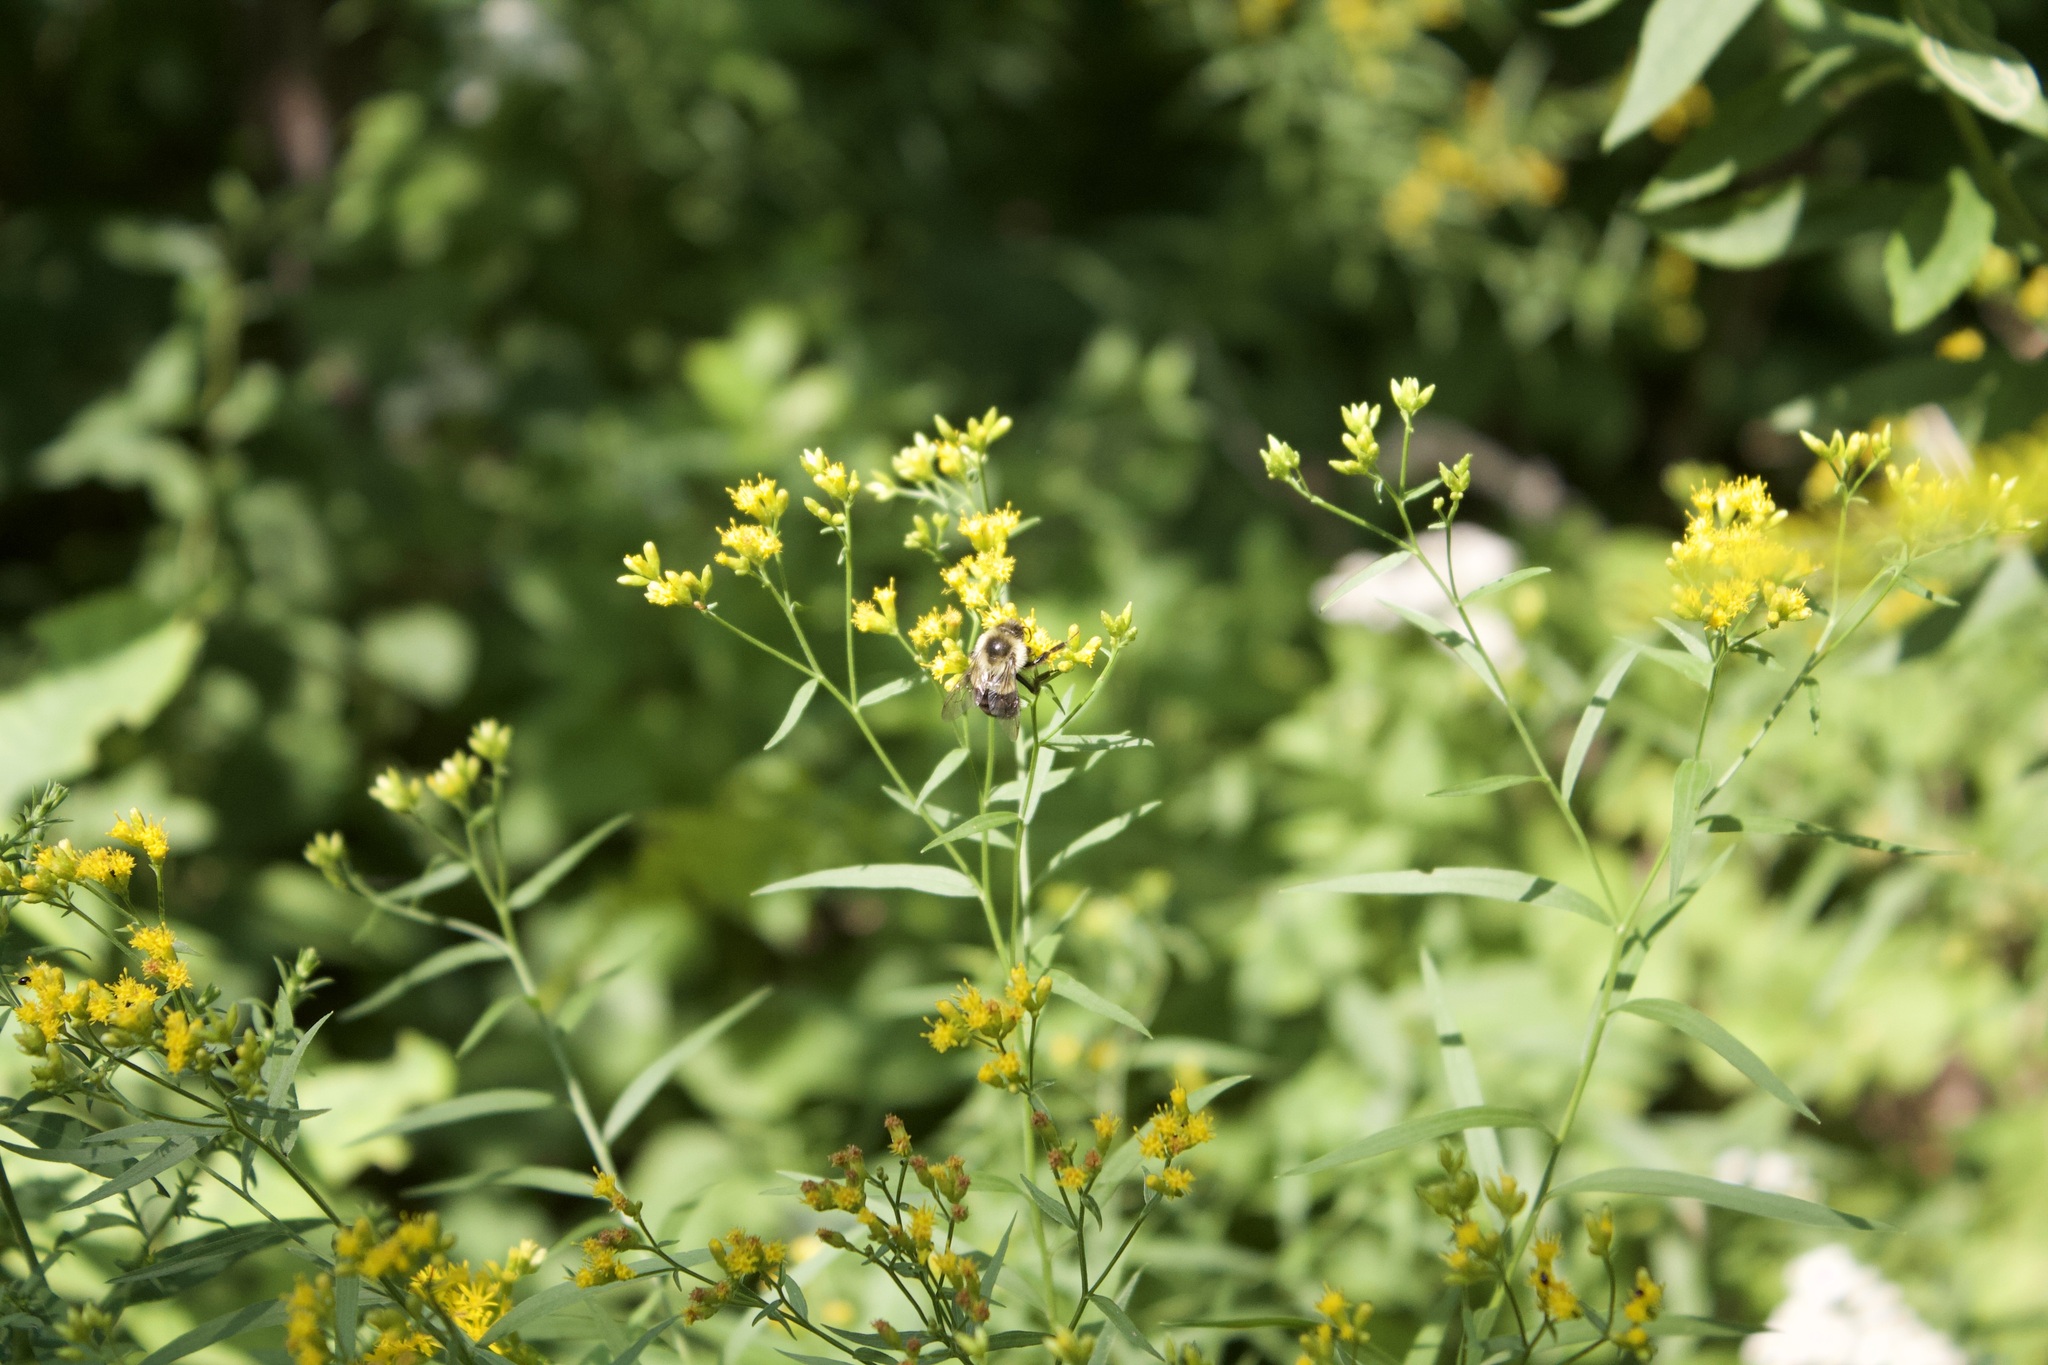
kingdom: Animalia
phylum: Arthropoda
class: Insecta
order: Hymenoptera
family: Apidae
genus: Bombus
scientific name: Bombus impatiens
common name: Common eastern bumble bee
